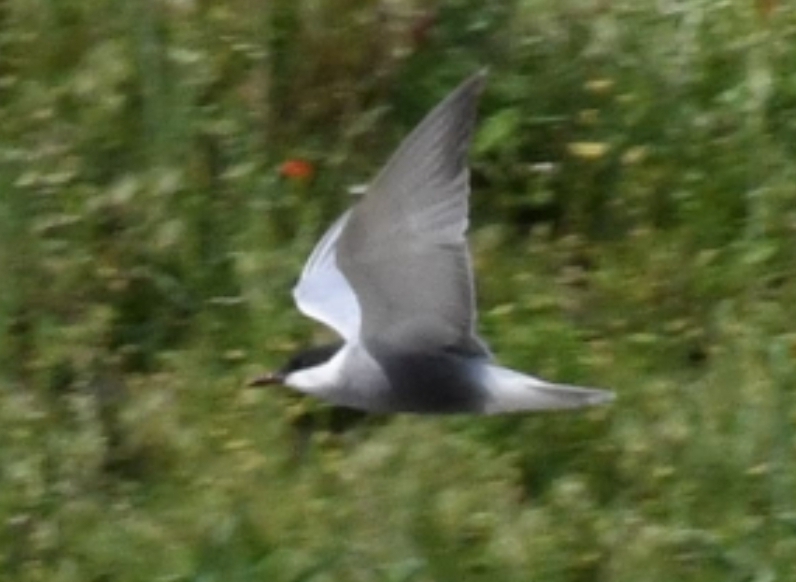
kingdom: Animalia
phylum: Chordata
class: Aves
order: Charadriiformes
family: Laridae
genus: Chlidonias
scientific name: Chlidonias hybrida
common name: Whiskered tern
